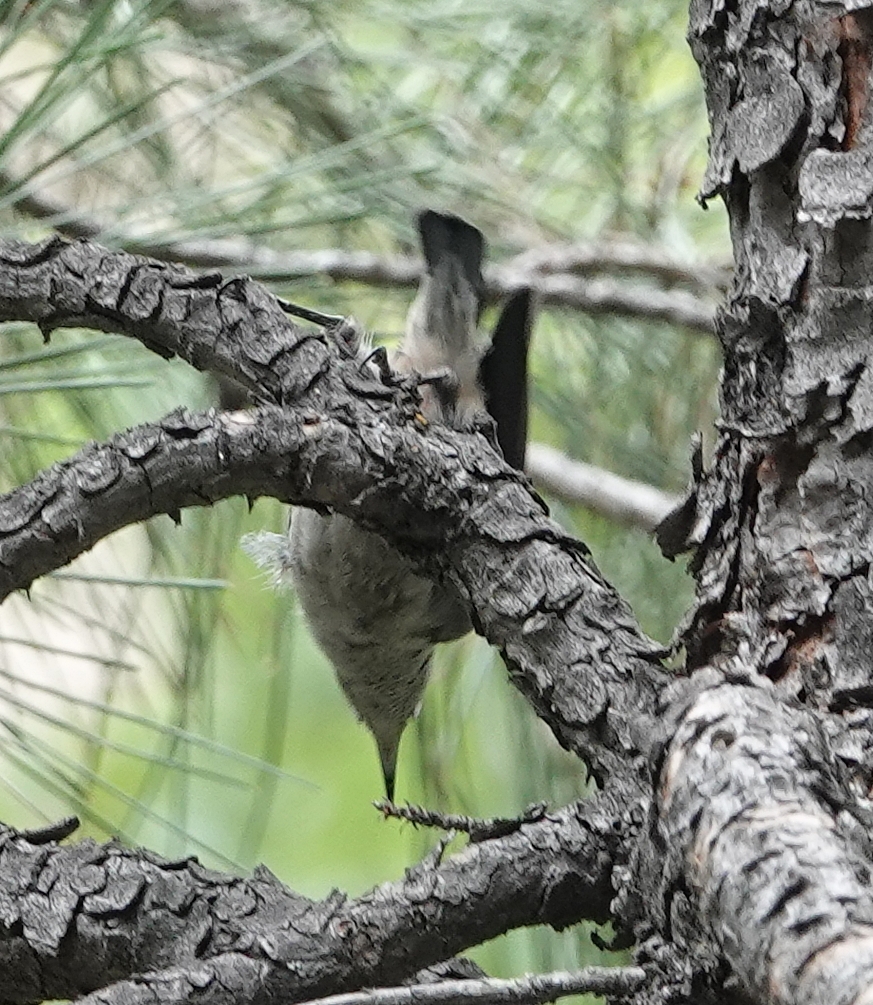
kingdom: Animalia
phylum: Chordata
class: Aves
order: Passeriformes
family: Sittidae
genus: Sitta
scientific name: Sitta pygmaea
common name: Pygmy nuthatch
